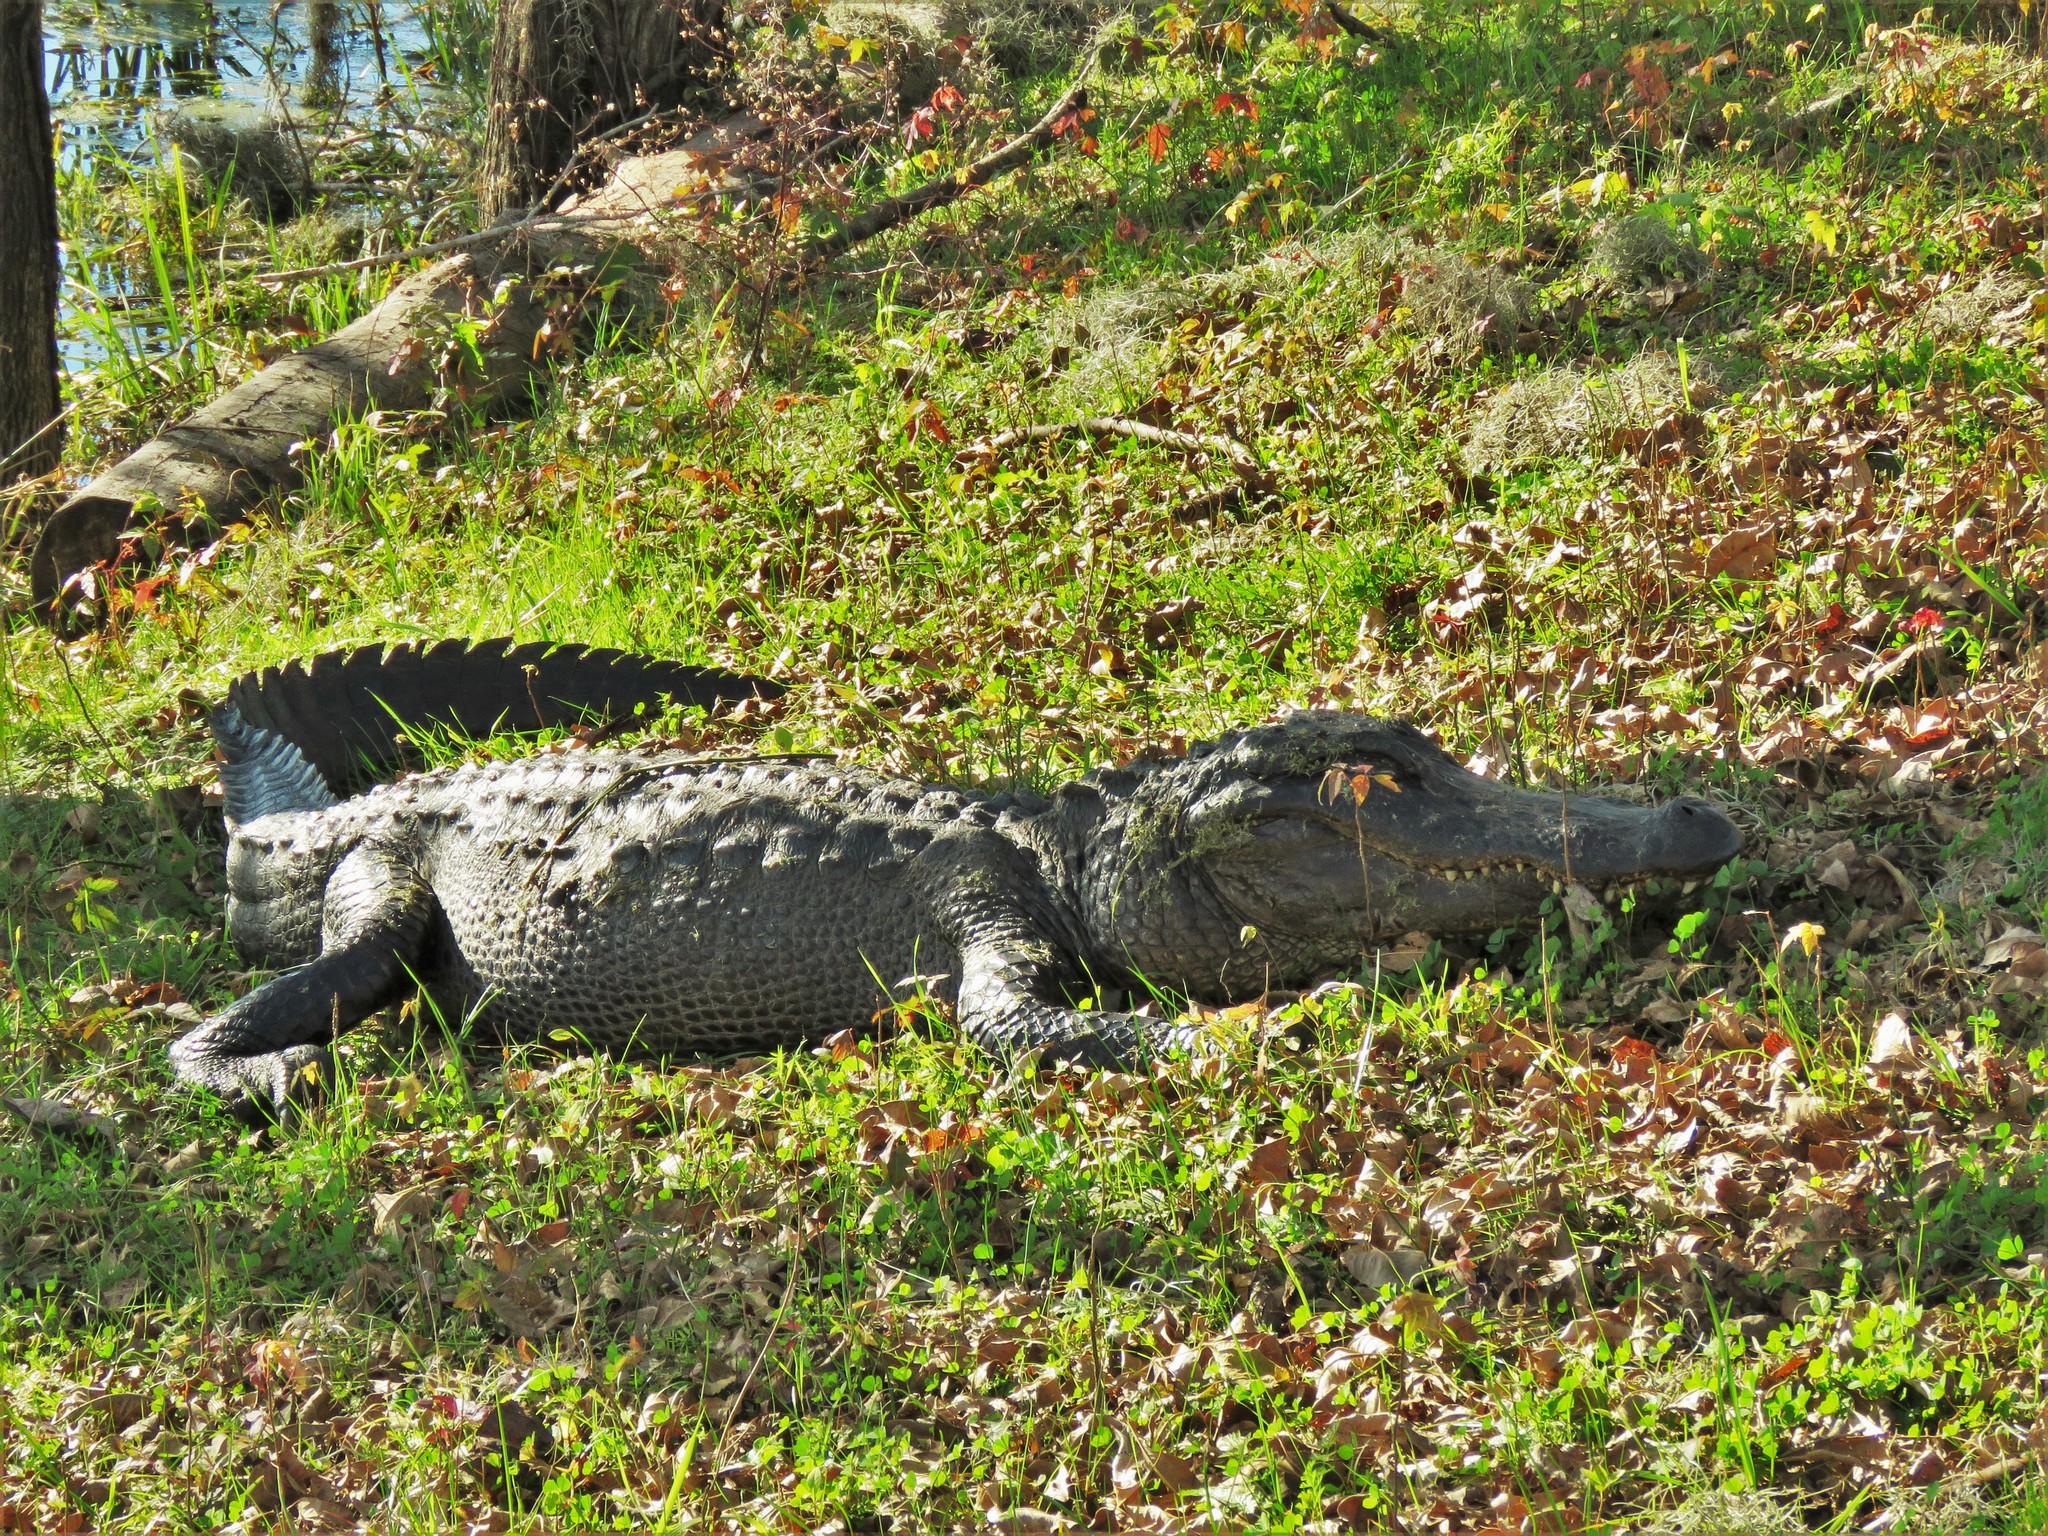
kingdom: Animalia
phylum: Chordata
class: Crocodylia
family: Alligatoridae
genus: Alligator
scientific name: Alligator mississippiensis
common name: American alligator
